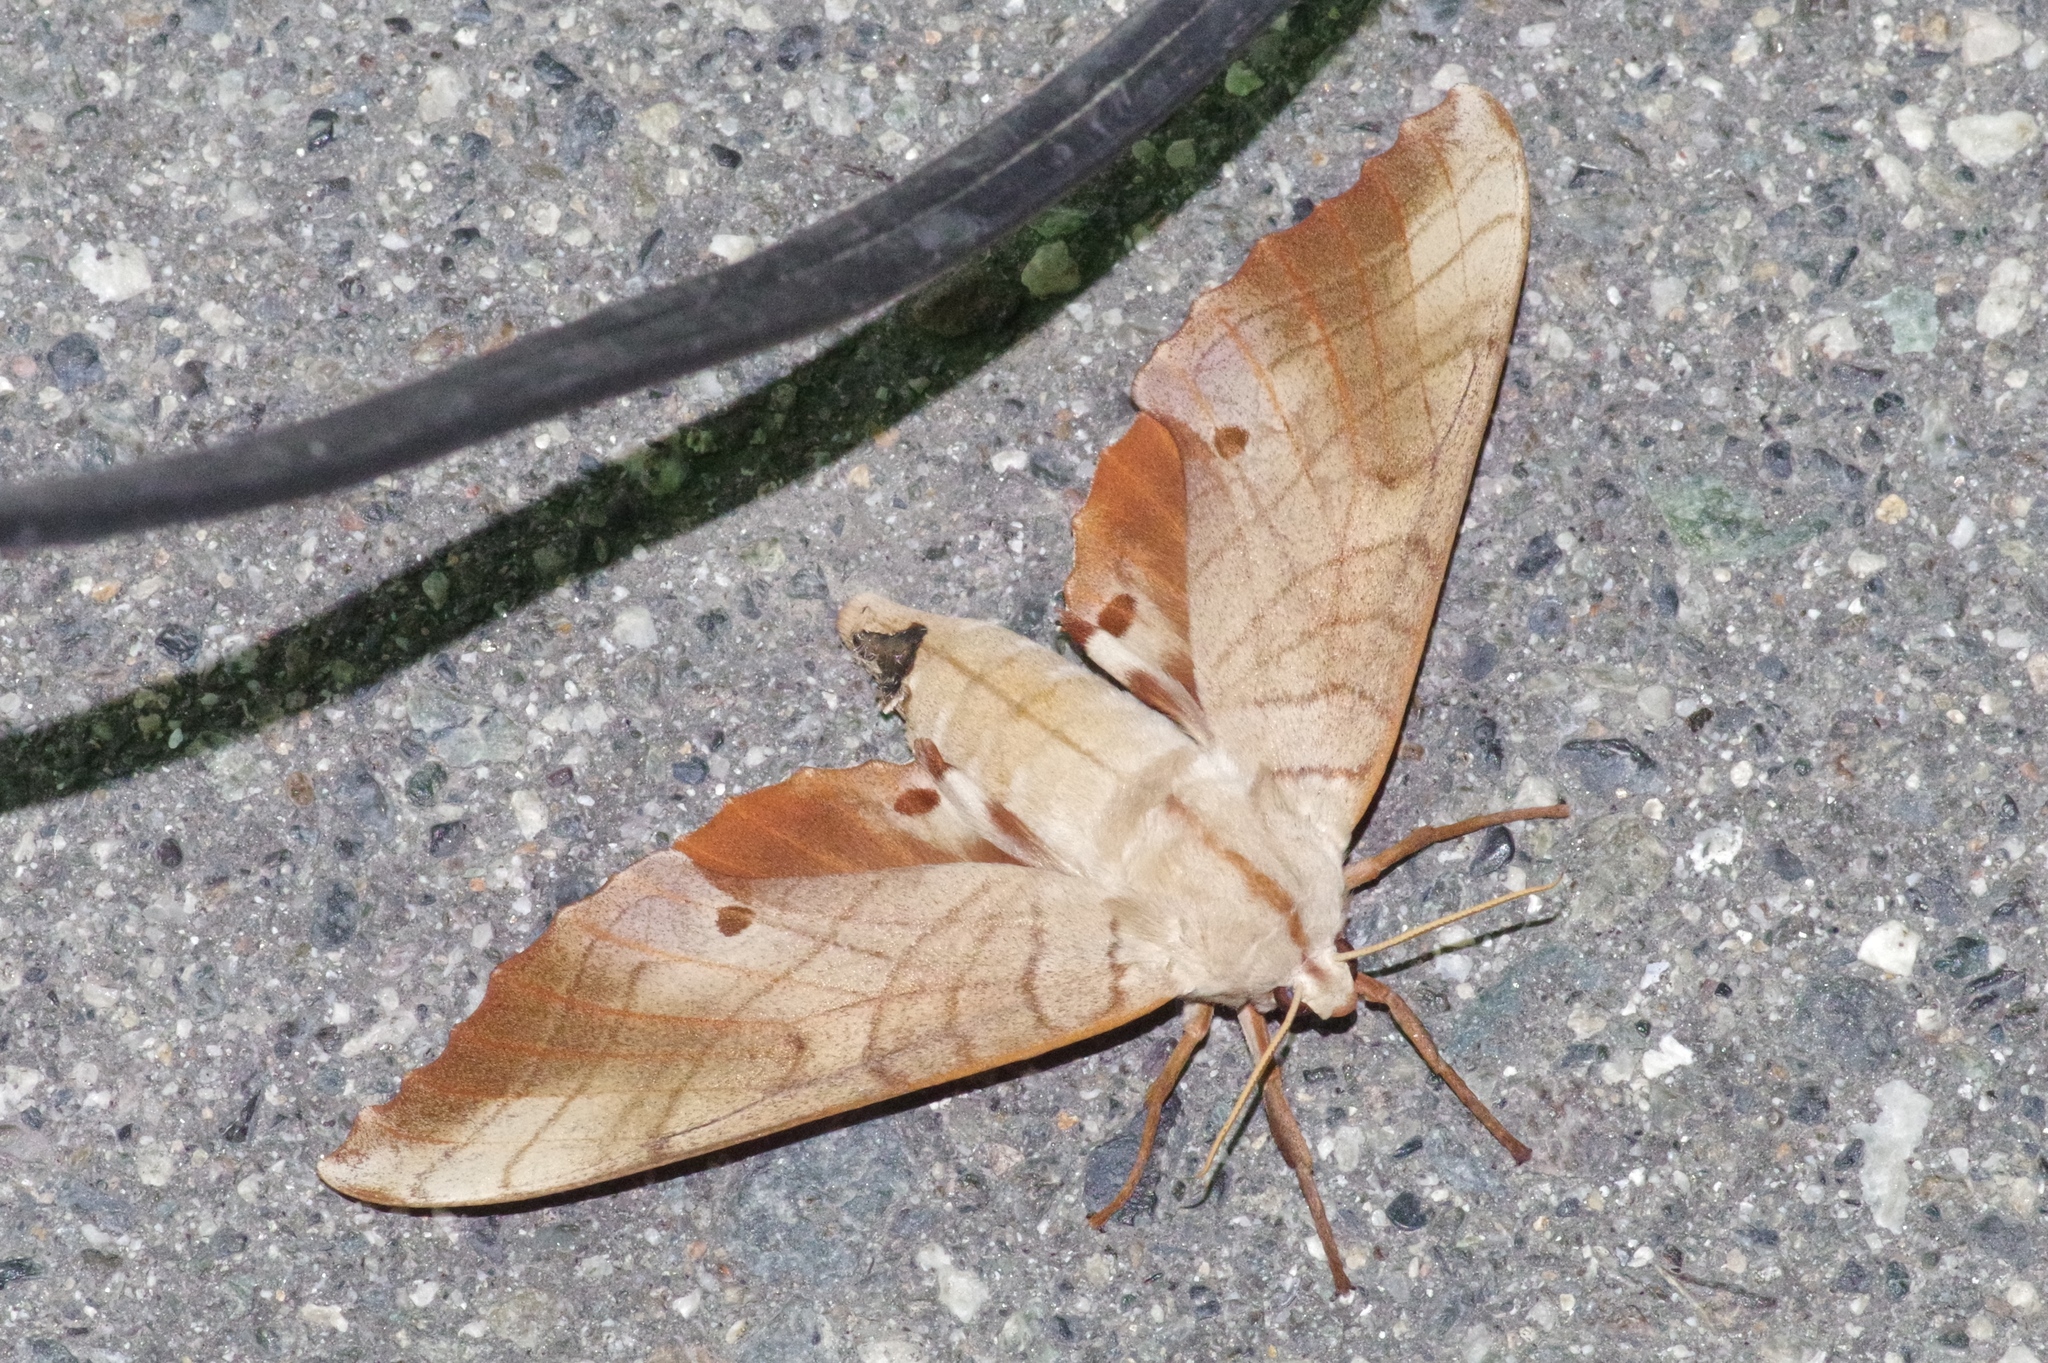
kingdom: Animalia
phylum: Arthropoda
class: Insecta
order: Lepidoptera
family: Sphingidae
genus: Marumba
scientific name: Marumba sperchius
